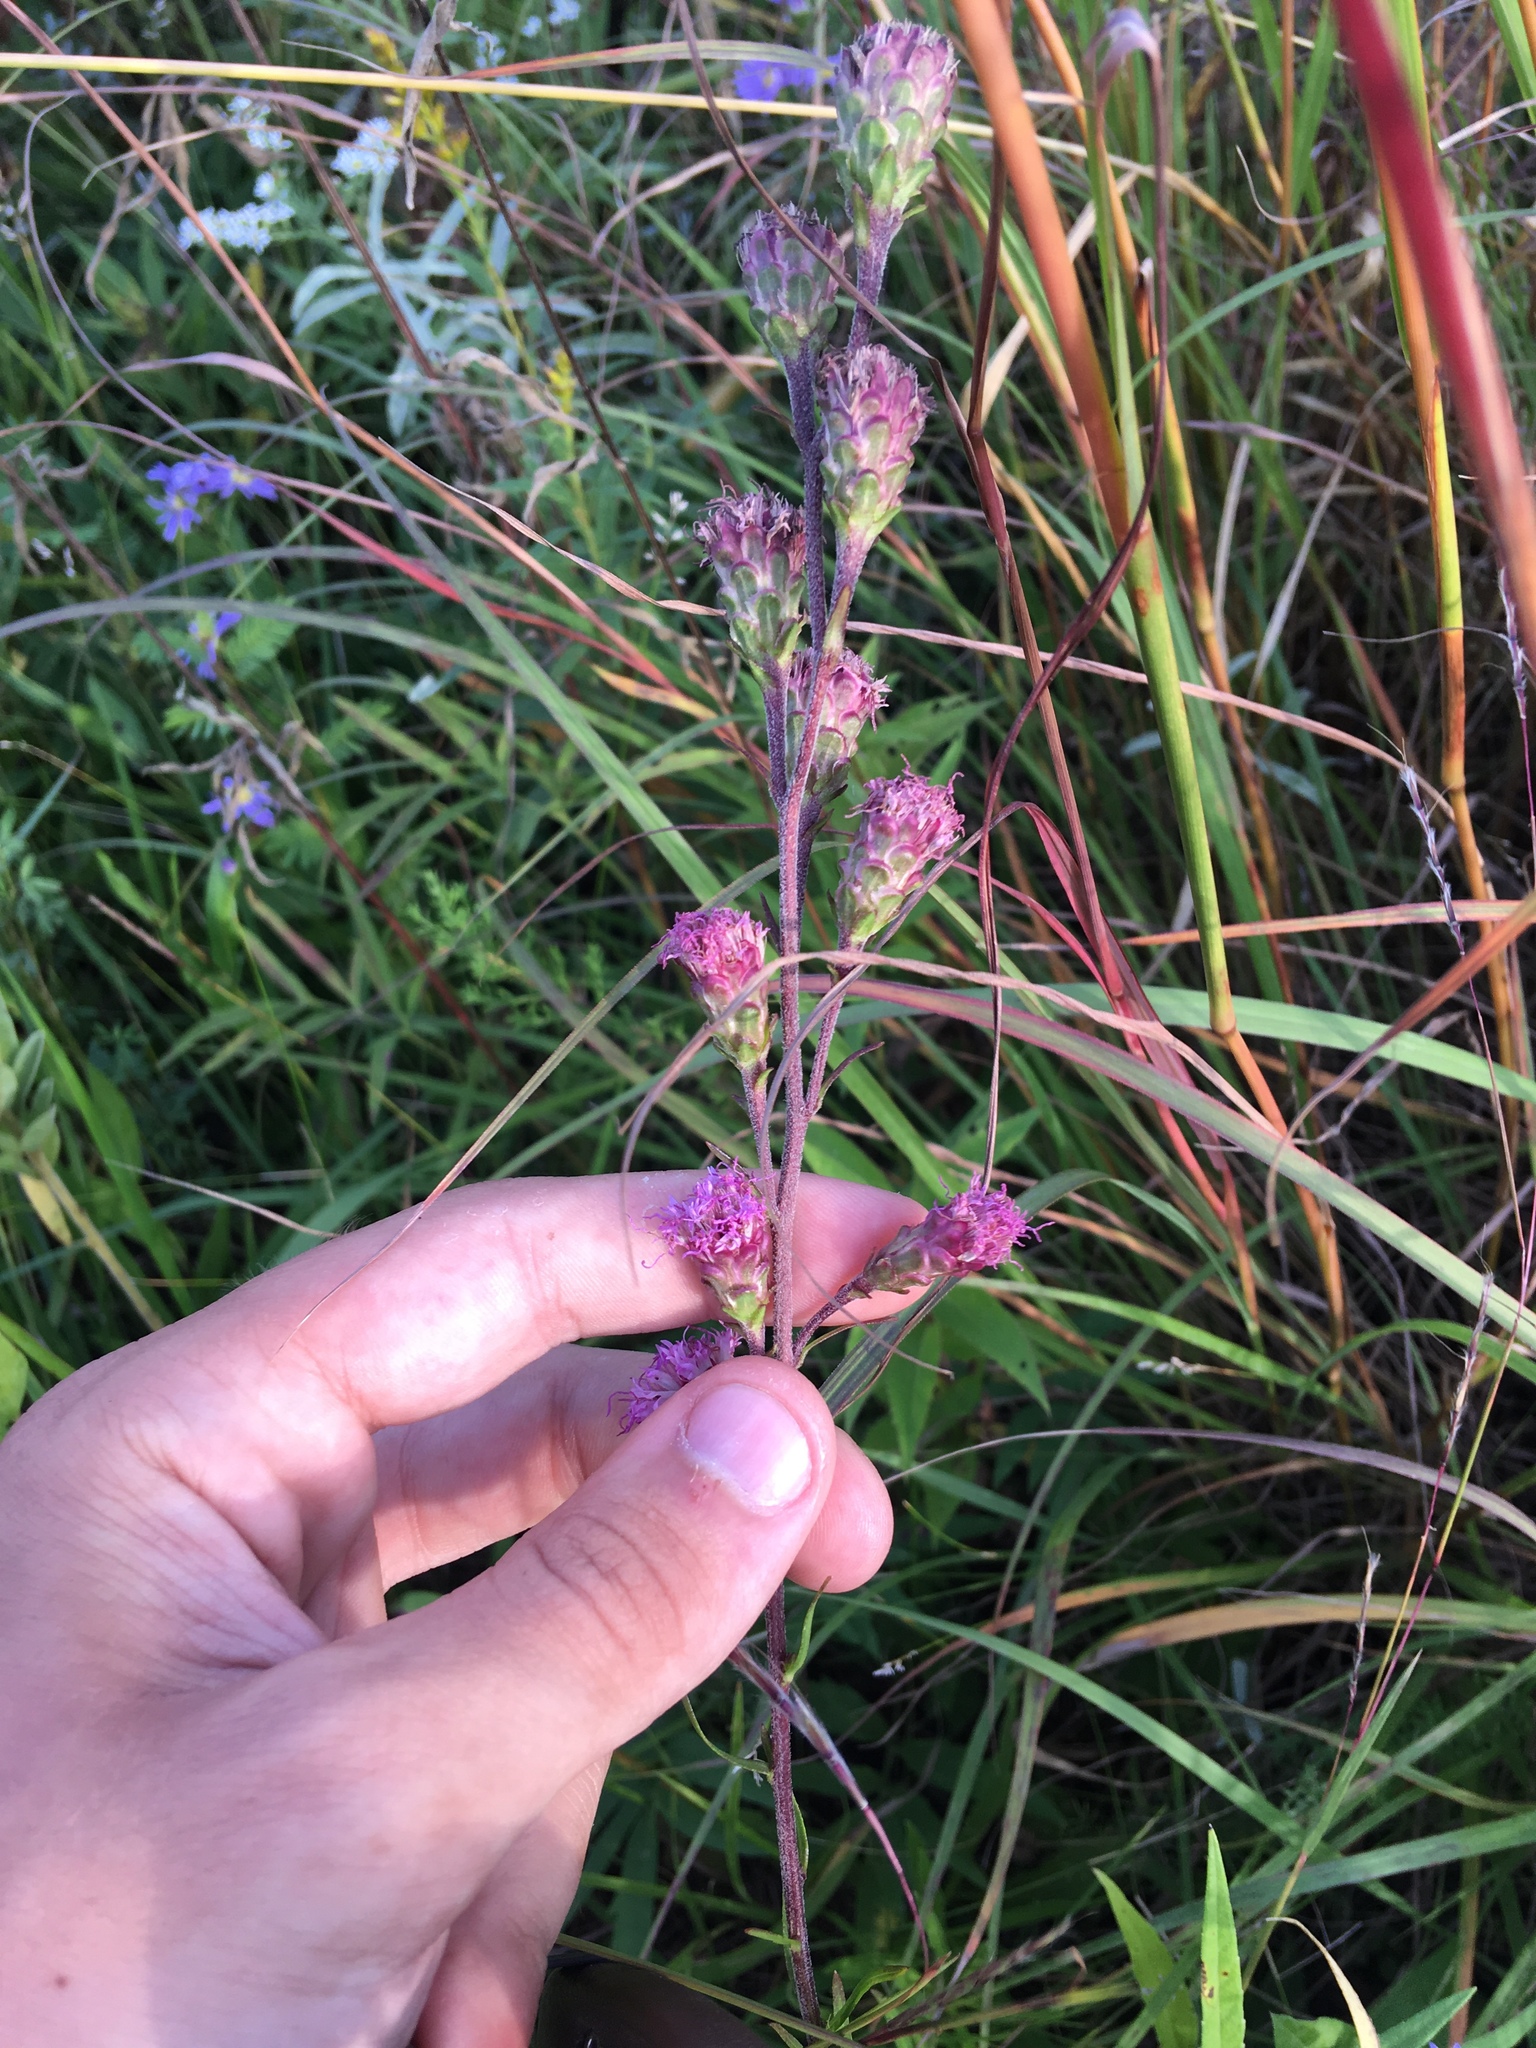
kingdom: Plantae
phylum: Tracheophyta
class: Magnoliopsida
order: Asterales
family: Asteraceae
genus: Liatris
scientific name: Liatris ligulistylis
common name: Northern plains gayfeather
